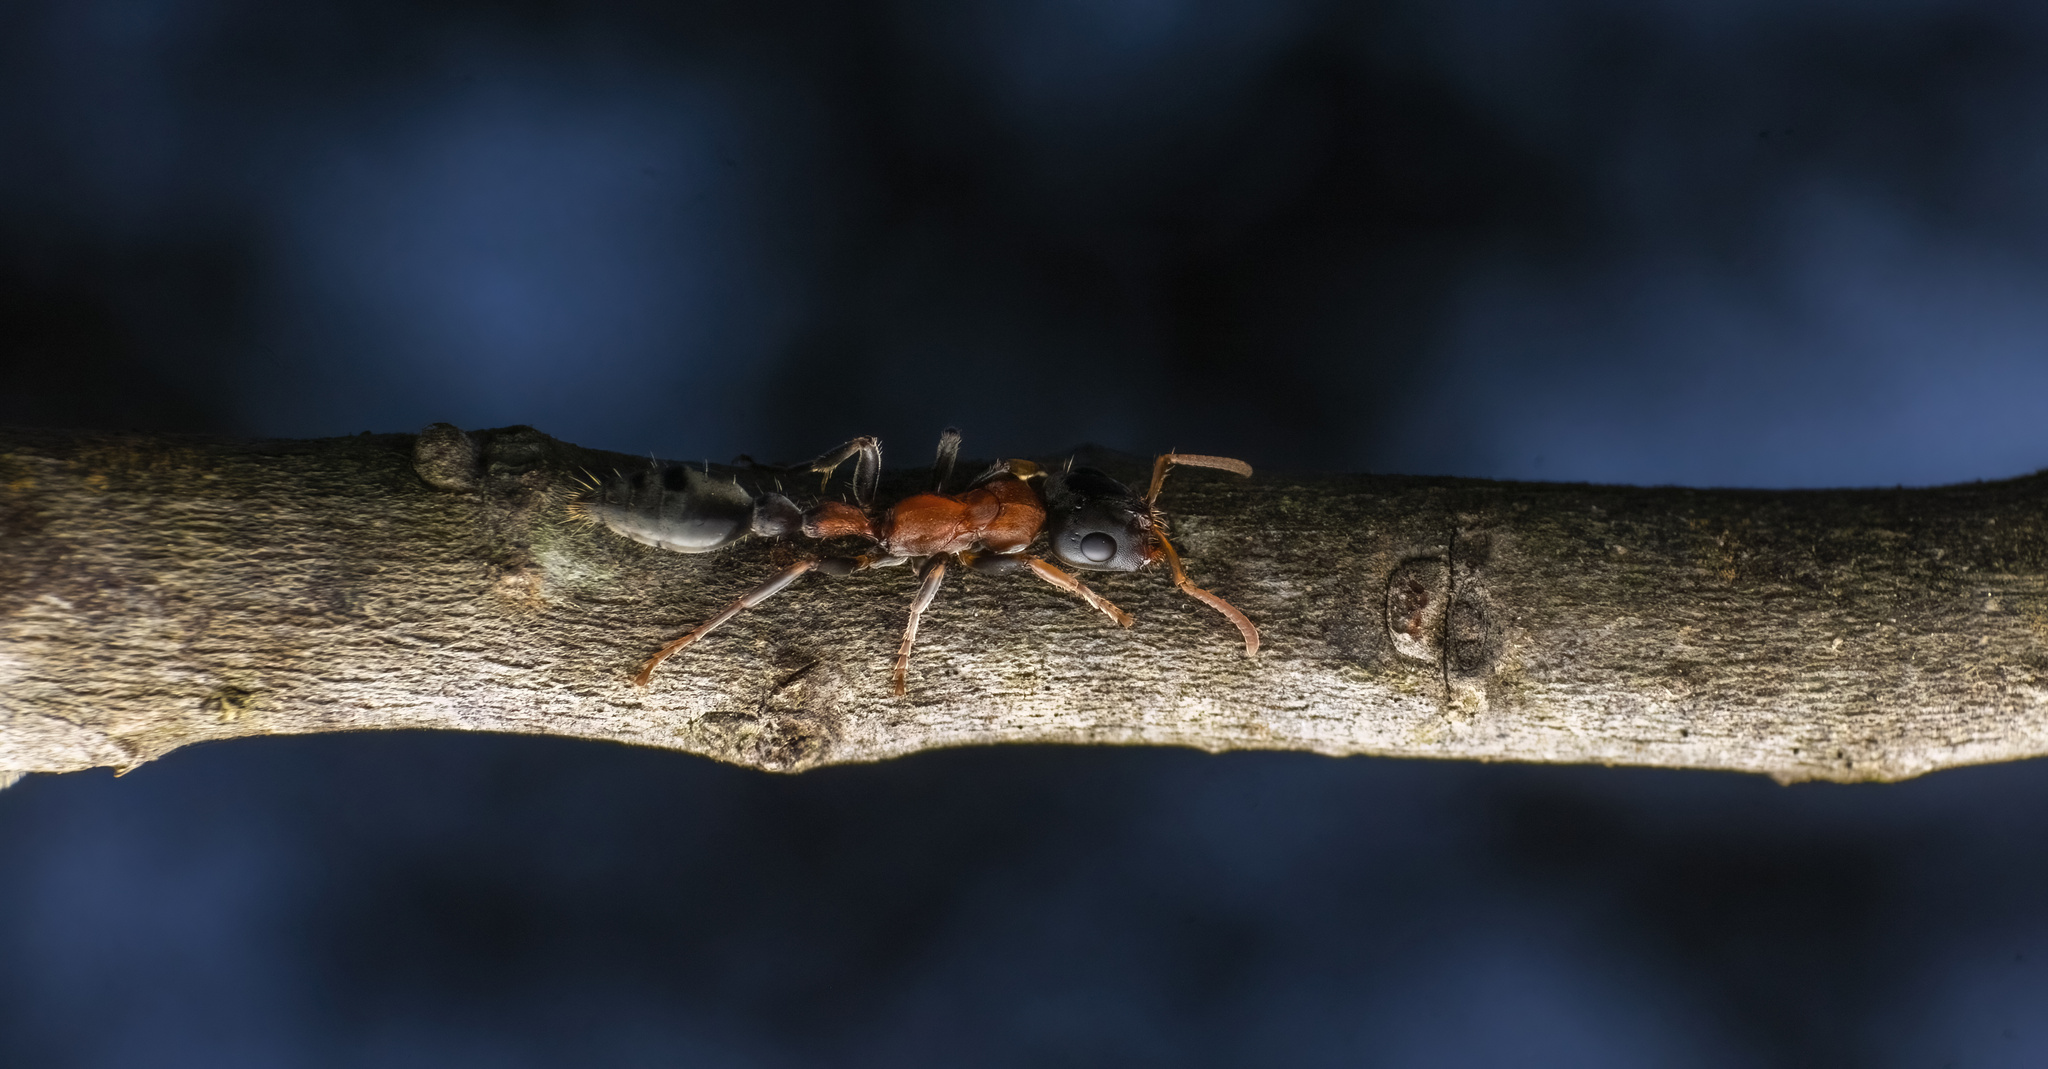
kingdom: Animalia
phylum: Arthropoda
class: Insecta
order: Hymenoptera
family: Formicidae
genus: Tetraponera
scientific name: Tetraponera rufonigra
